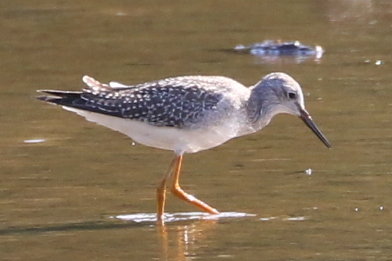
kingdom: Animalia
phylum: Chordata
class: Aves
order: Charadriiformes
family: Scolopacidae
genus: Tringa
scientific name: Tringa flavipes
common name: Lesser yellowlegs
